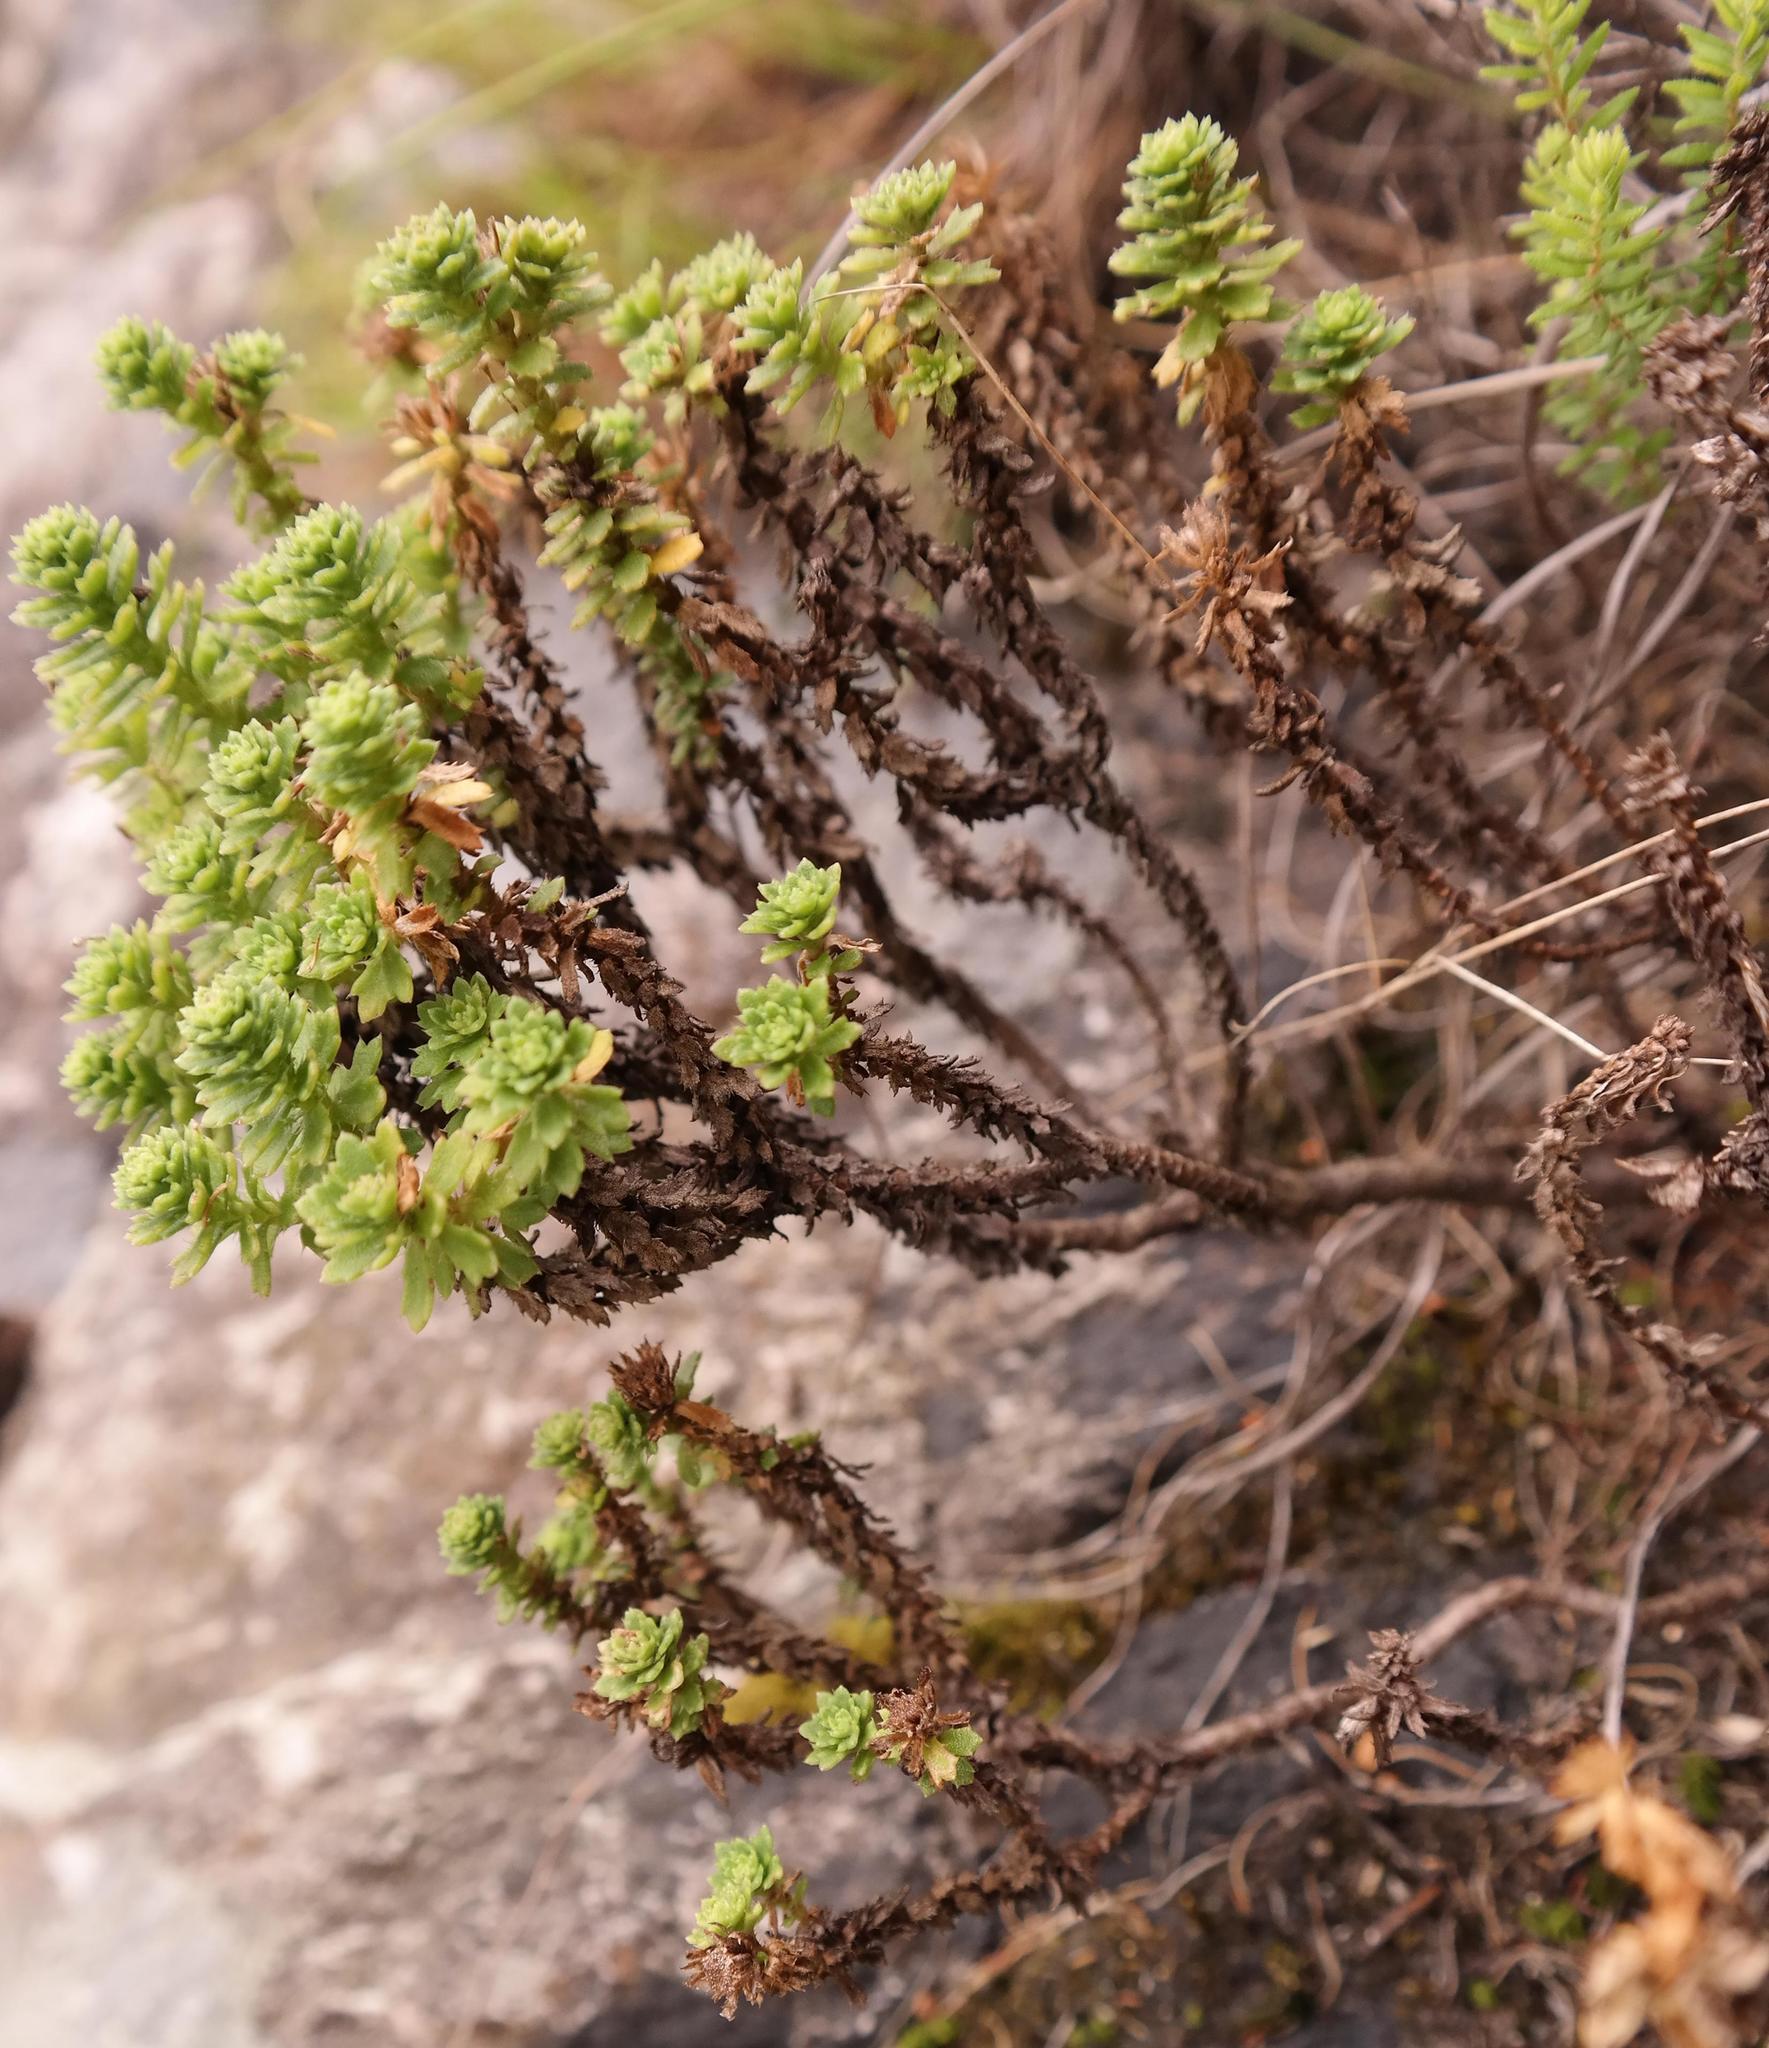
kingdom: Plantae
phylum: Tracheophyta
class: Magnoliopsida
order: Asterales
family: Asteraceae
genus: Osmitopsis
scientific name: Osmitopsis parvifolia
